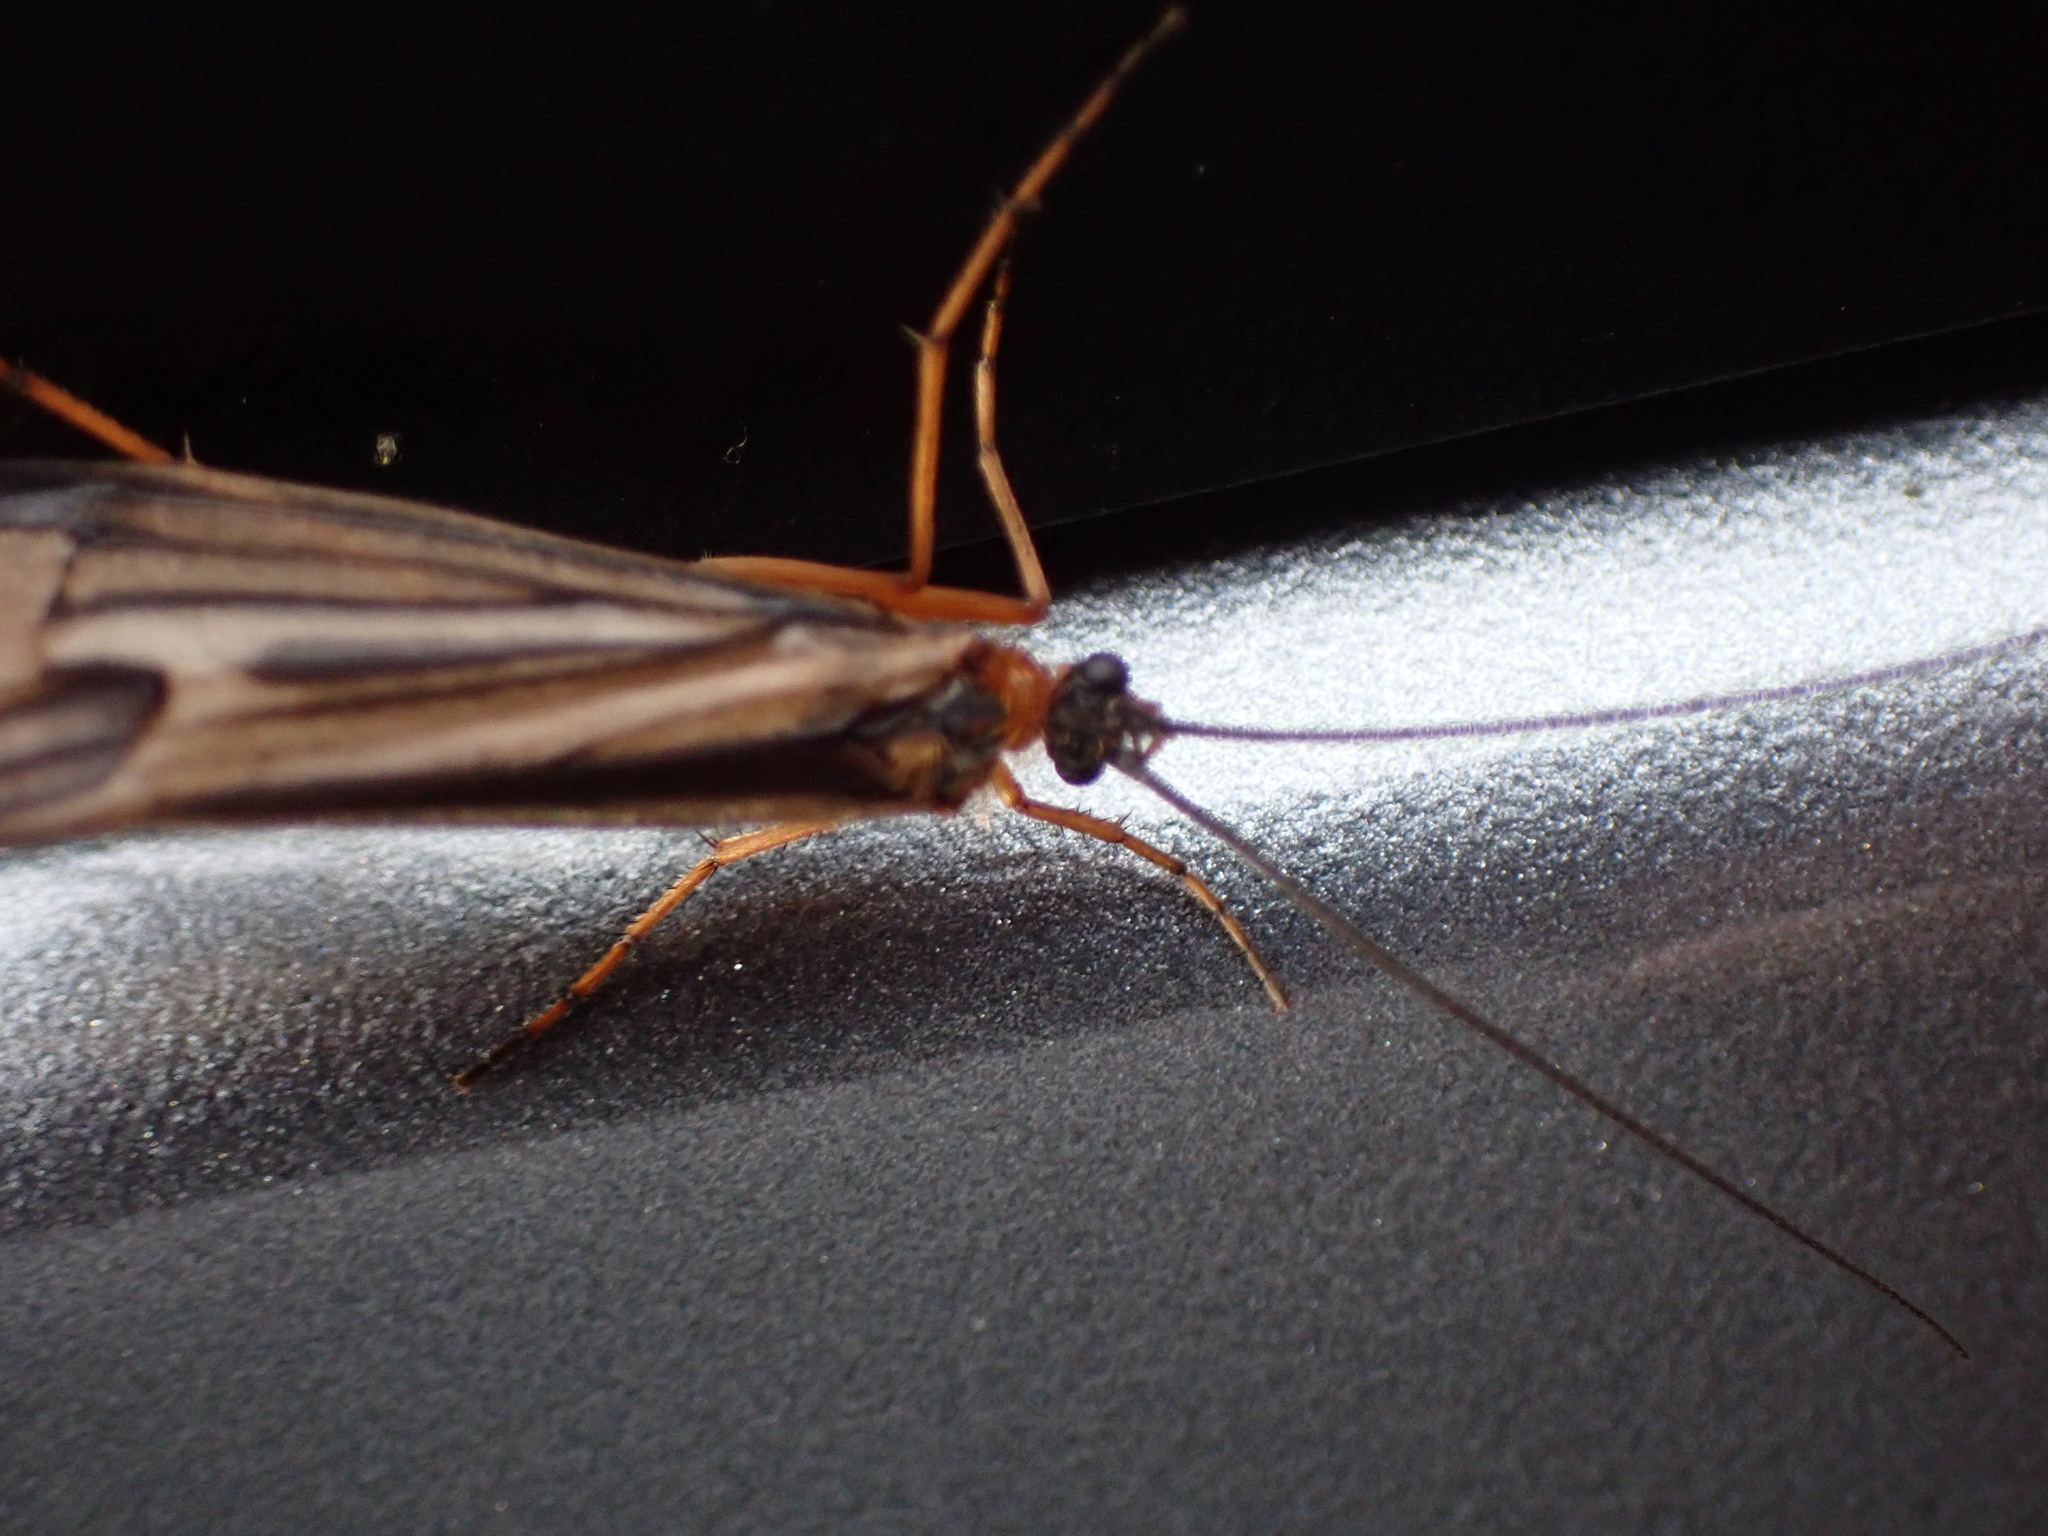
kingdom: Animalia
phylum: Arthropoda
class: Insecta
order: Trichoptera
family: Limnephilidae
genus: Halesochila
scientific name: Halesochila taylori
